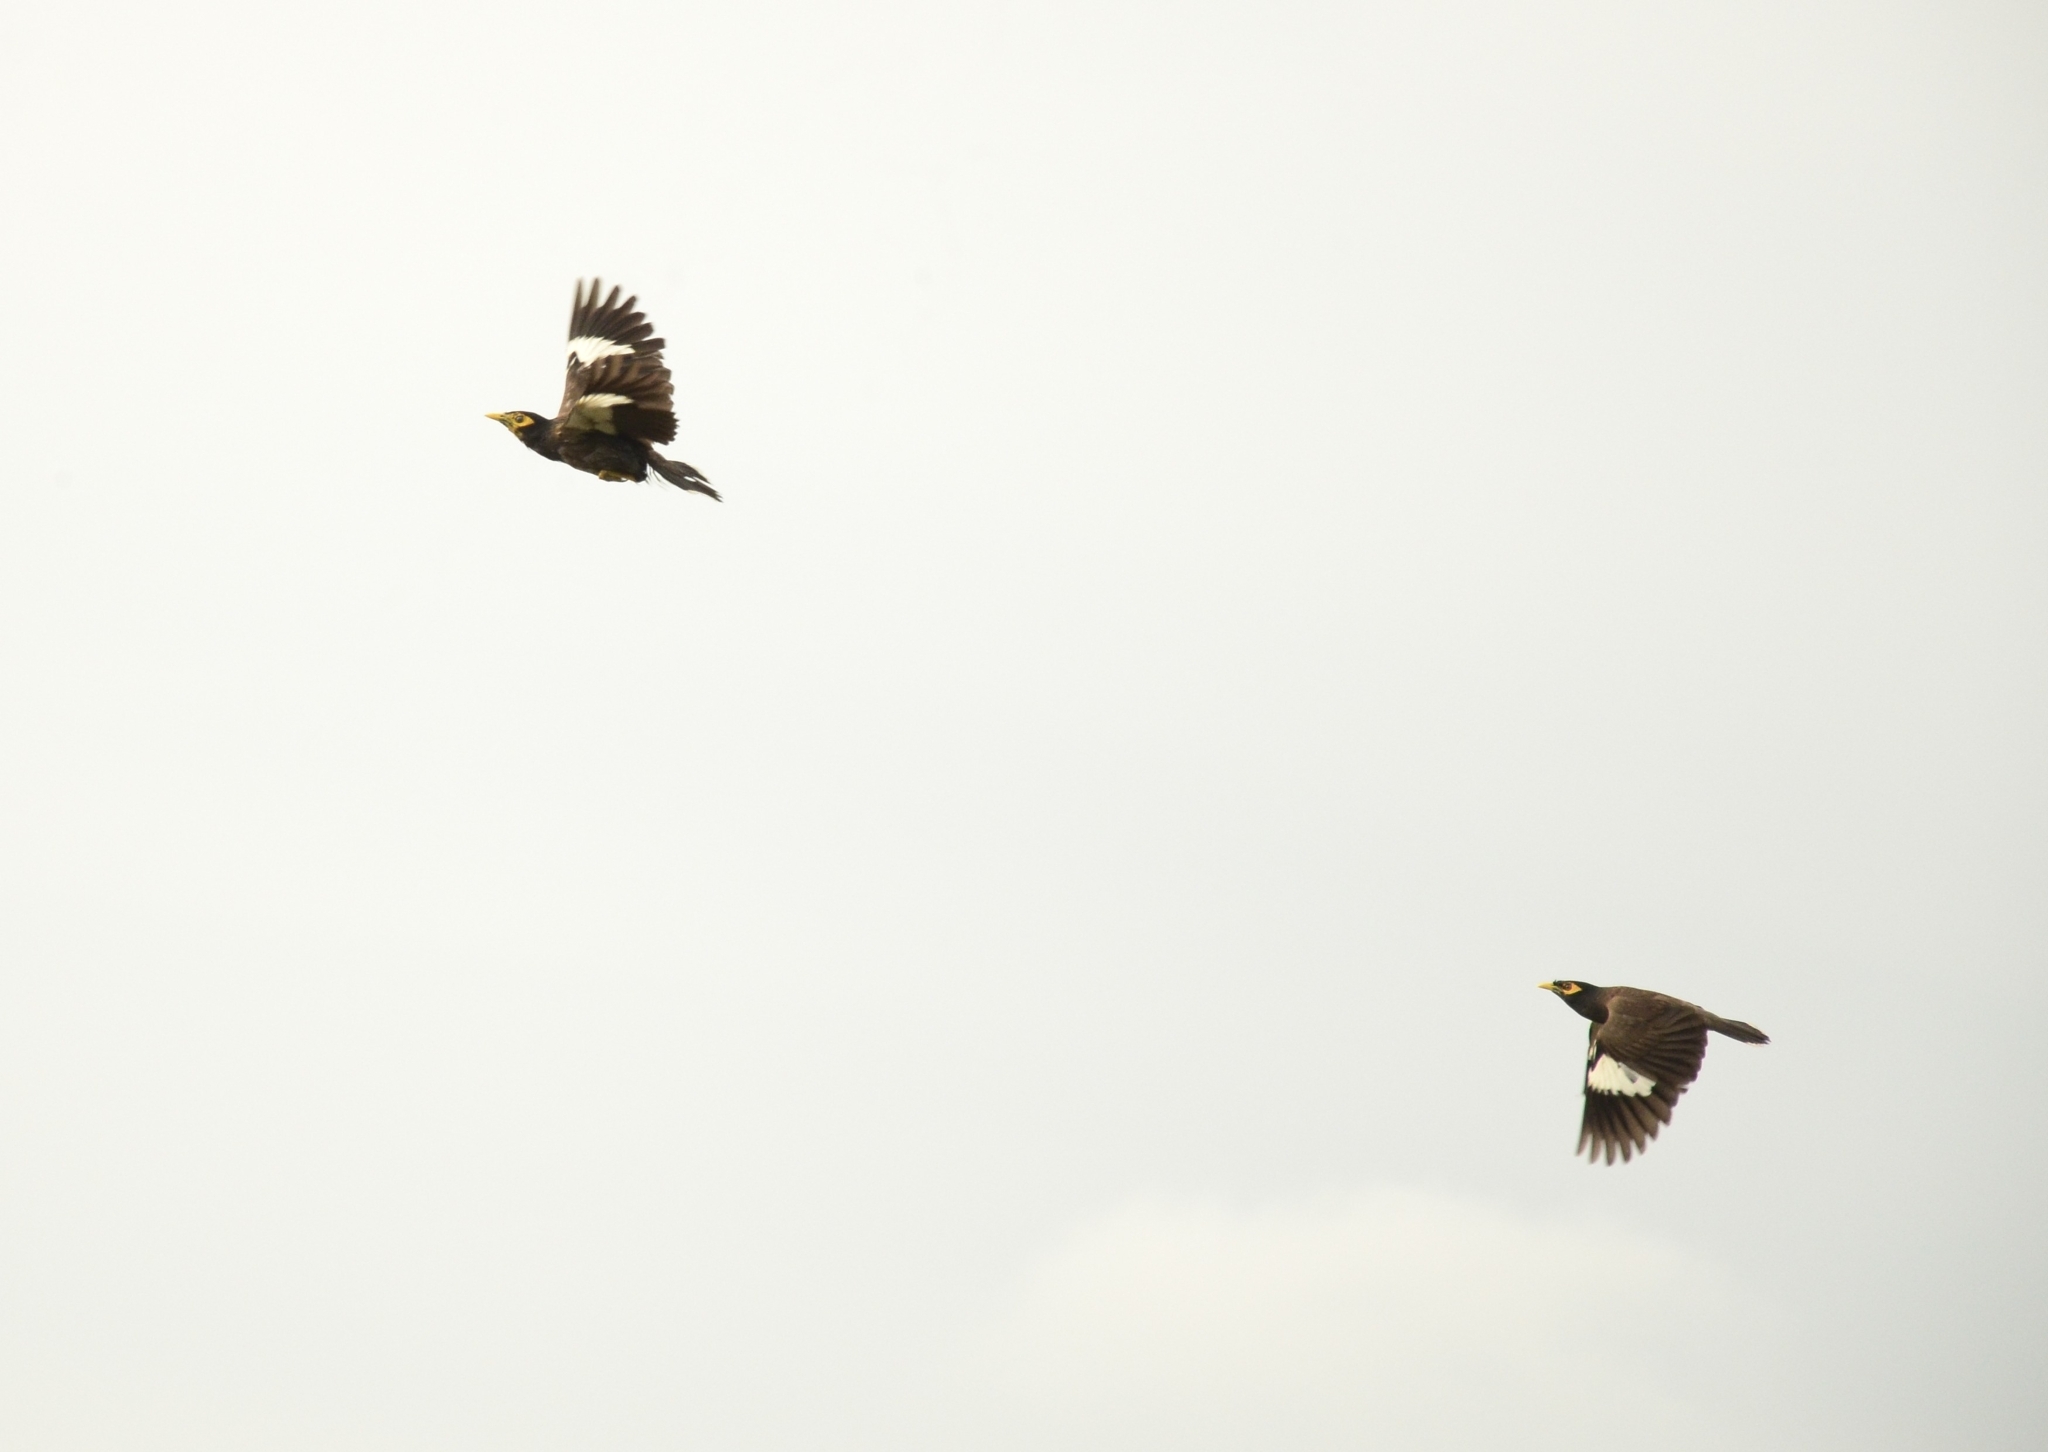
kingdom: Animalia
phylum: Chordata
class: Aves
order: Passeriformes
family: Sturnidae
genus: Acridotheres
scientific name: Acridotheres tristis
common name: Common myna
